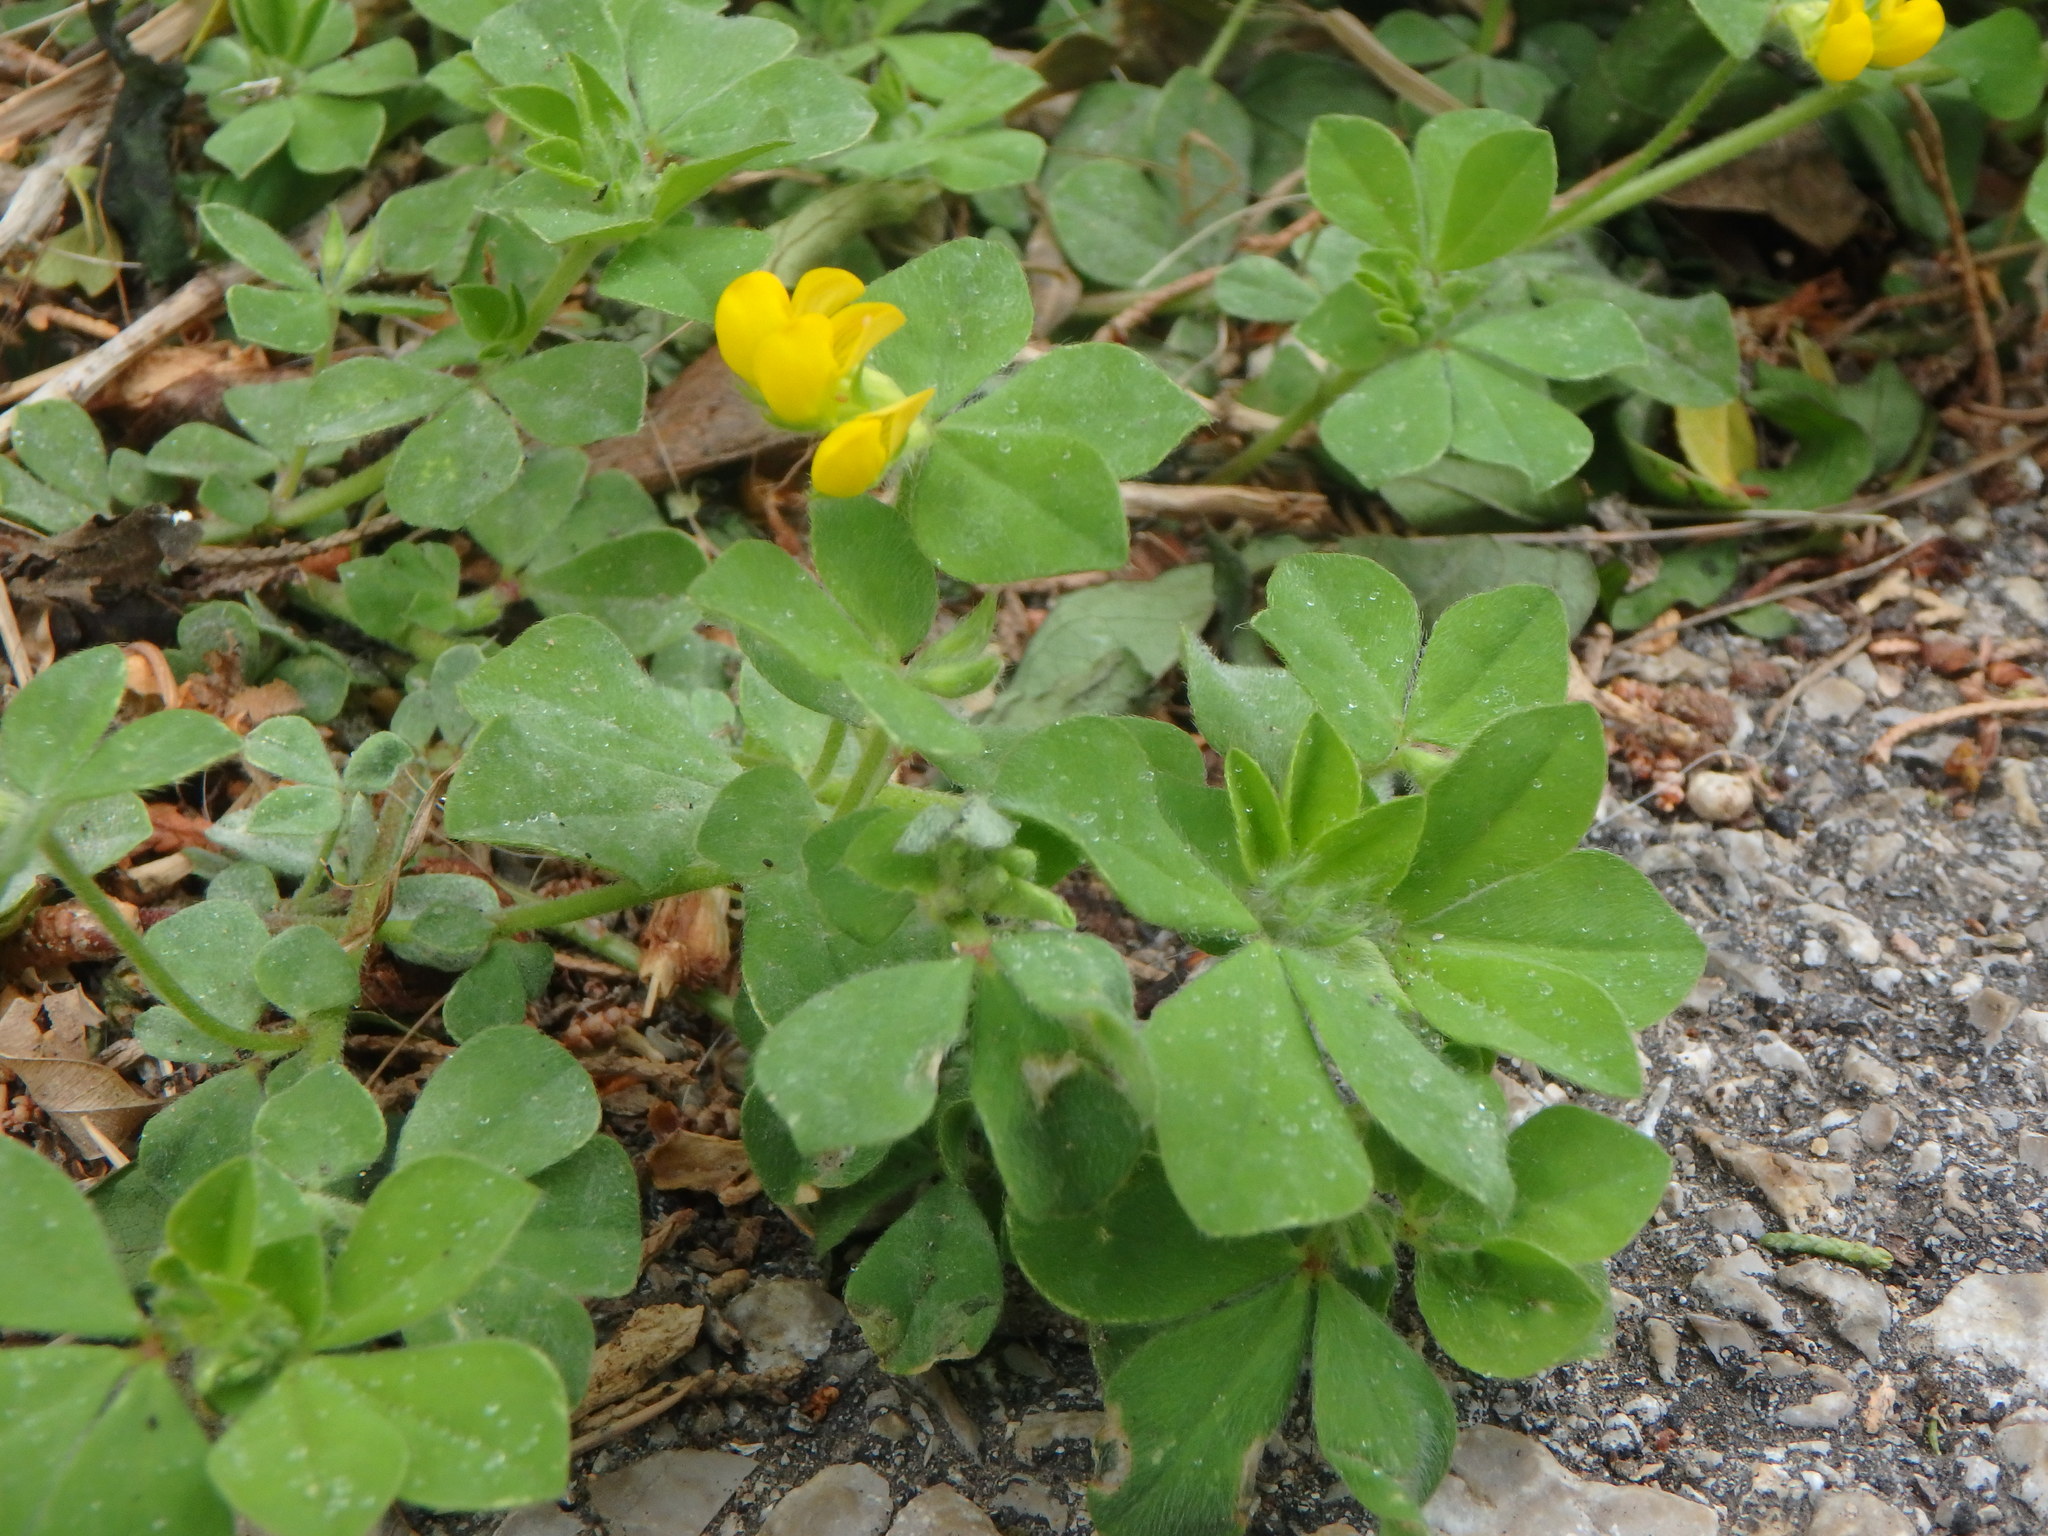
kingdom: Plantae
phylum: Tracheophyta
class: Magnoliopsida
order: Fabales
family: Fabaceae
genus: Lotus
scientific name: Lotus ornithopodioides
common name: Southern bird's-foot trefoil
